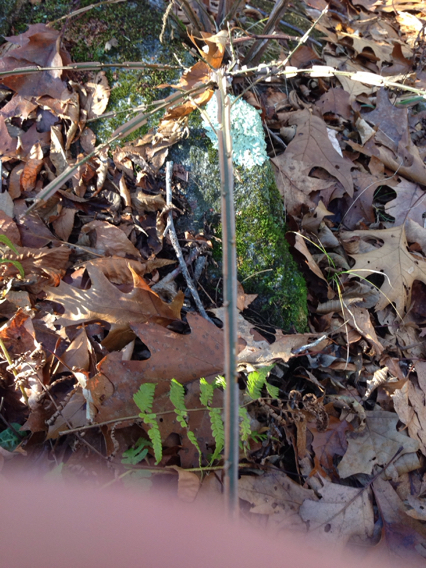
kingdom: Plantae
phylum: Tracheophyta
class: Magnoliopsida
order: Celastrales
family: Celastraceae
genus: Euonymus
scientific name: Euonymus alatus
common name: Winged euonymus
